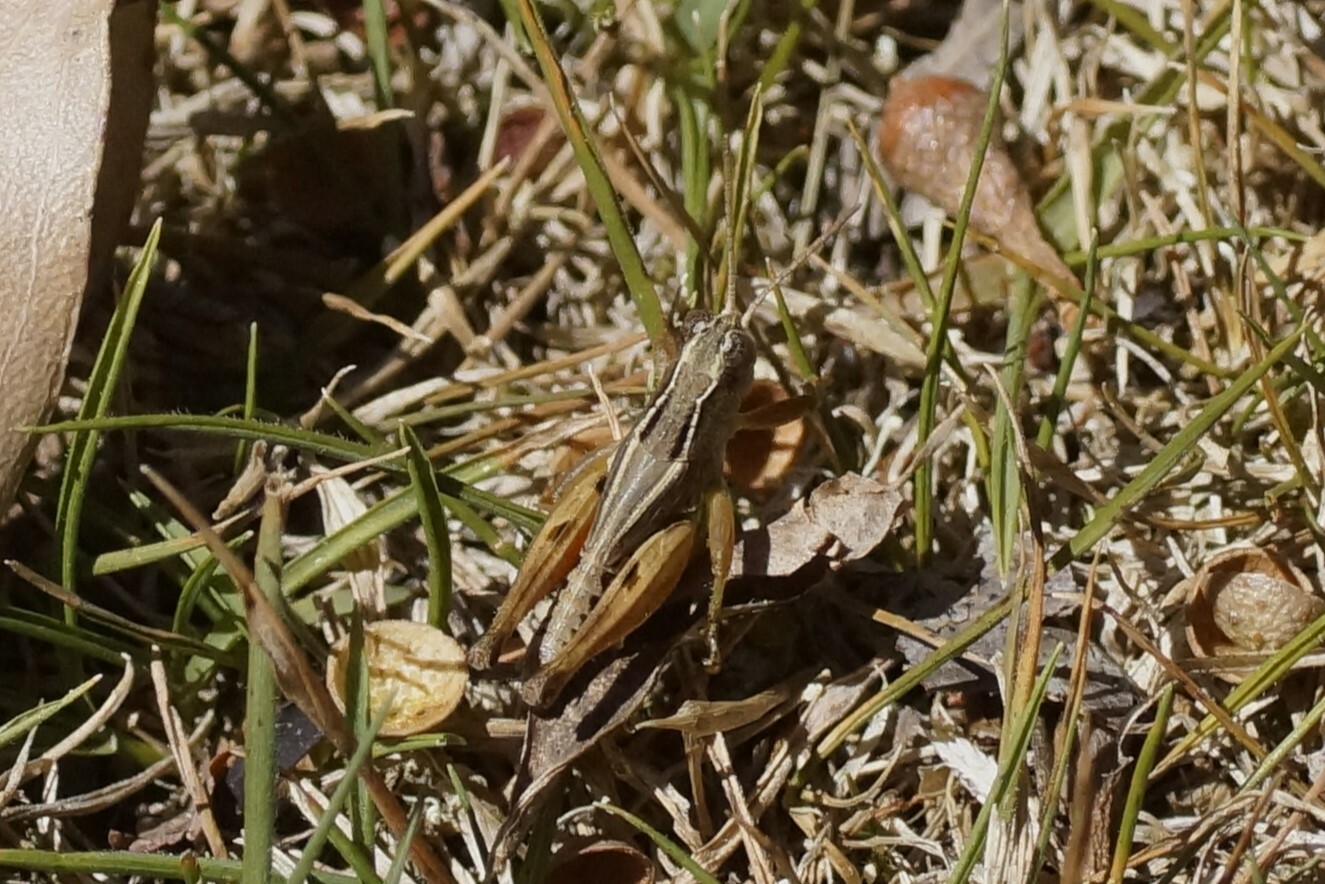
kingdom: Animalia
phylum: Arthropoda
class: Insecta
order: Orthoptera
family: Acrididae
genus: Phaulacridium
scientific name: Phaulacridium vittatum
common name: Wingless grasshopper
